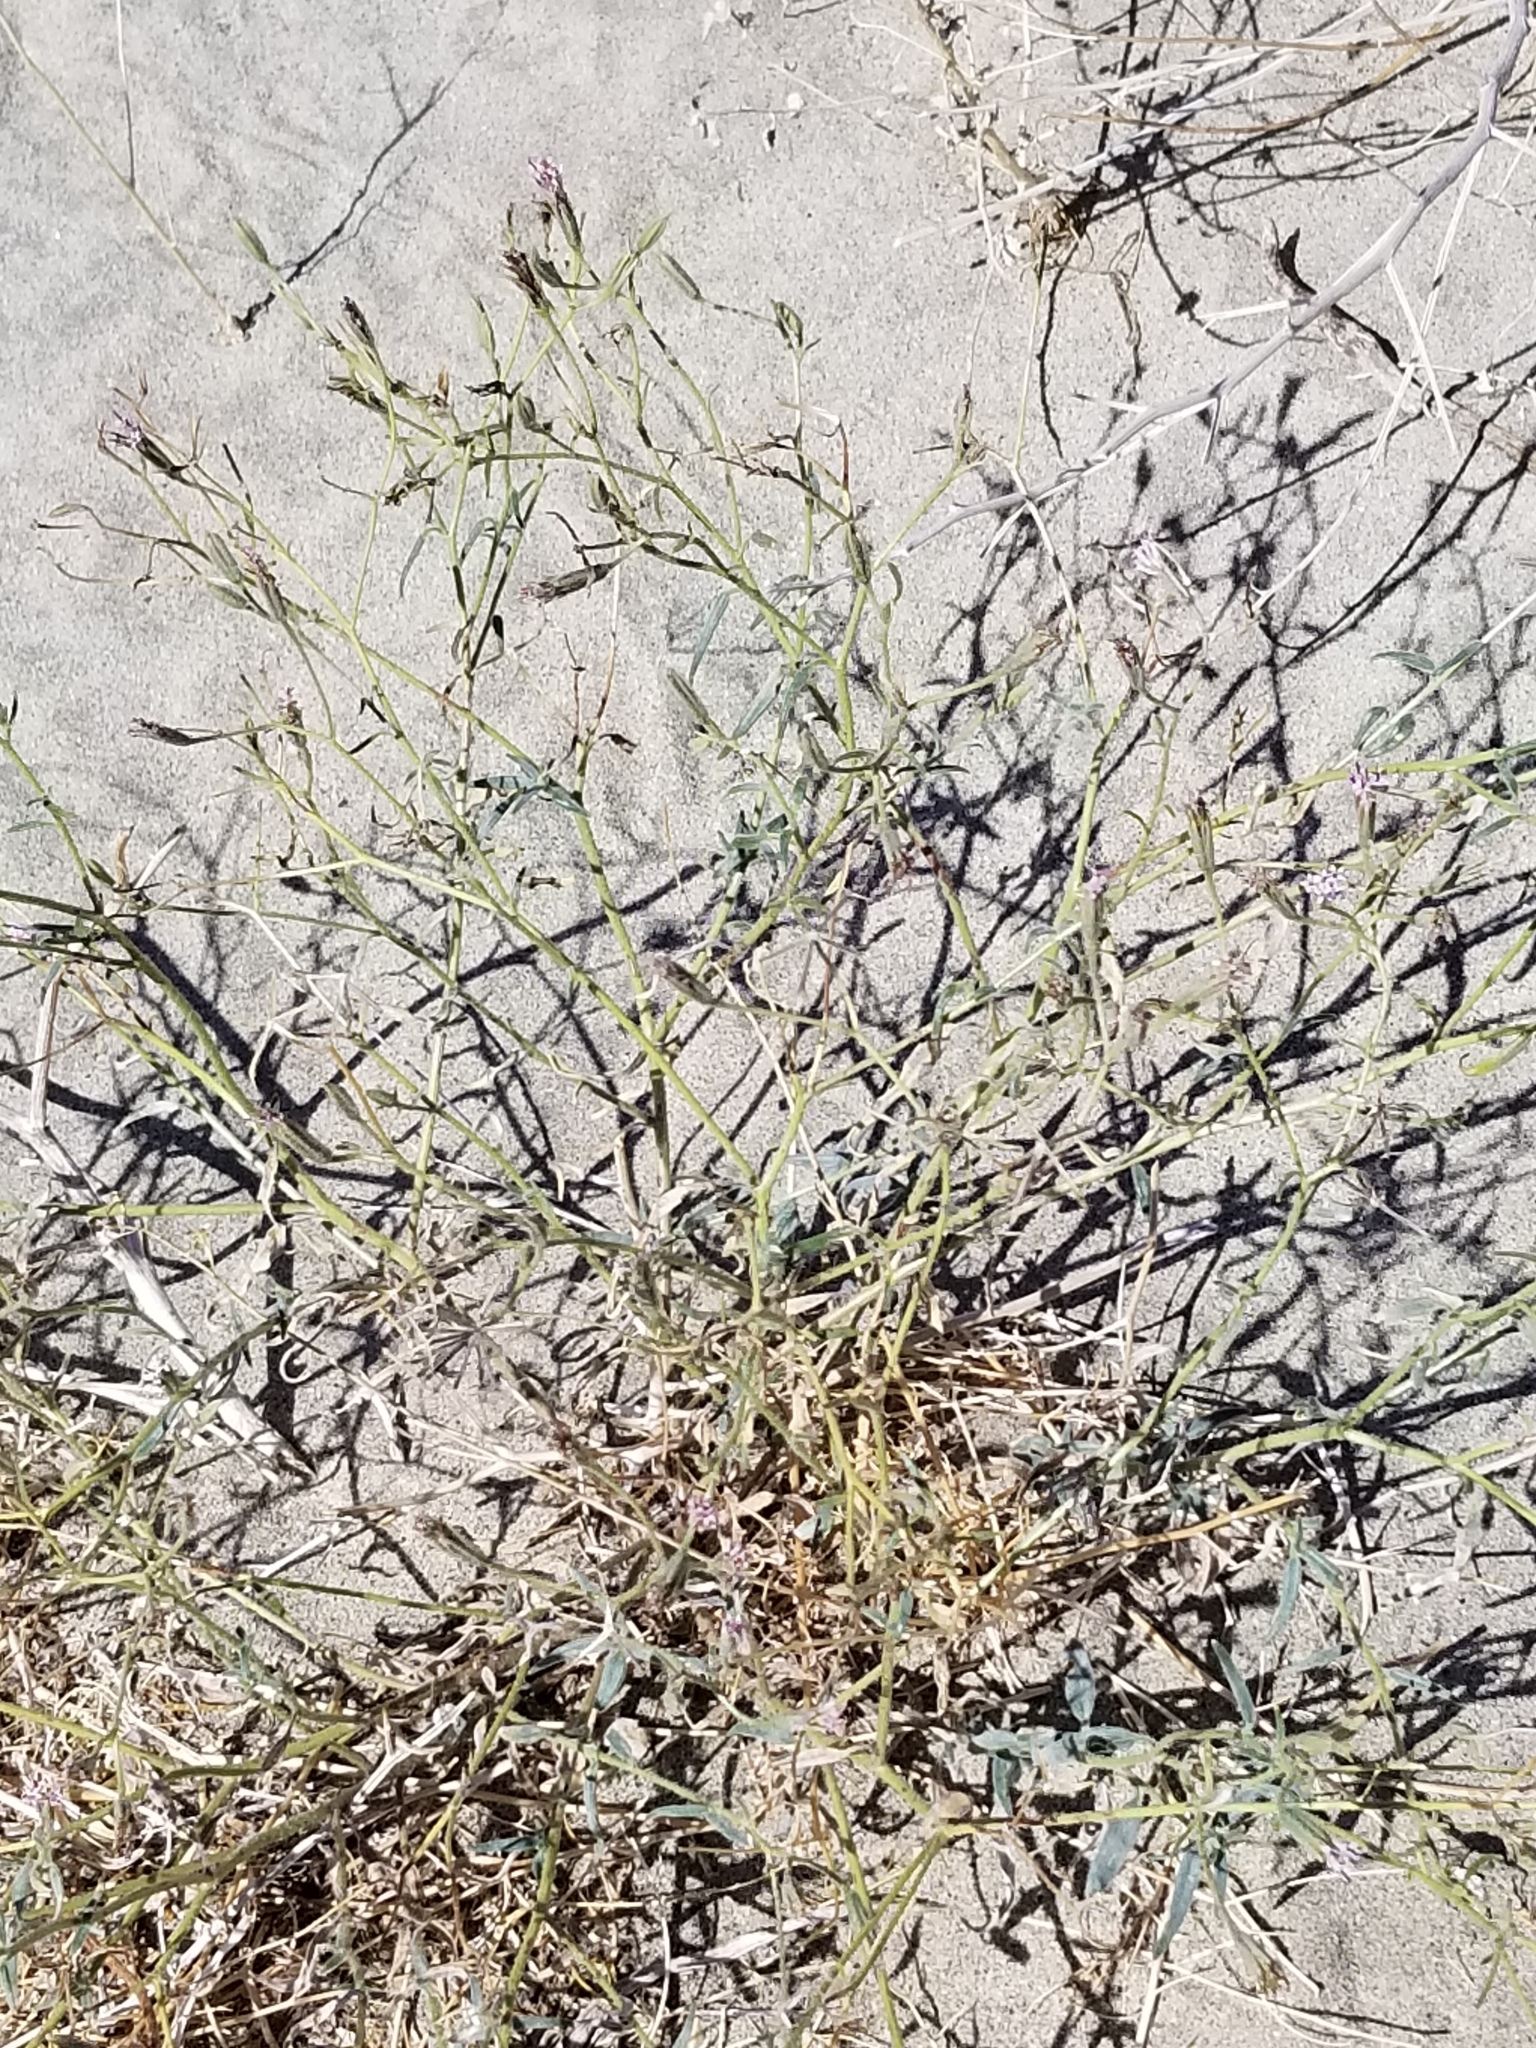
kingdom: Plantae
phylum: Tracheophyta
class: Magnoliopsida
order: Asterales
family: Asteraceae
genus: Palafoxia
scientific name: Palafoxia arida
